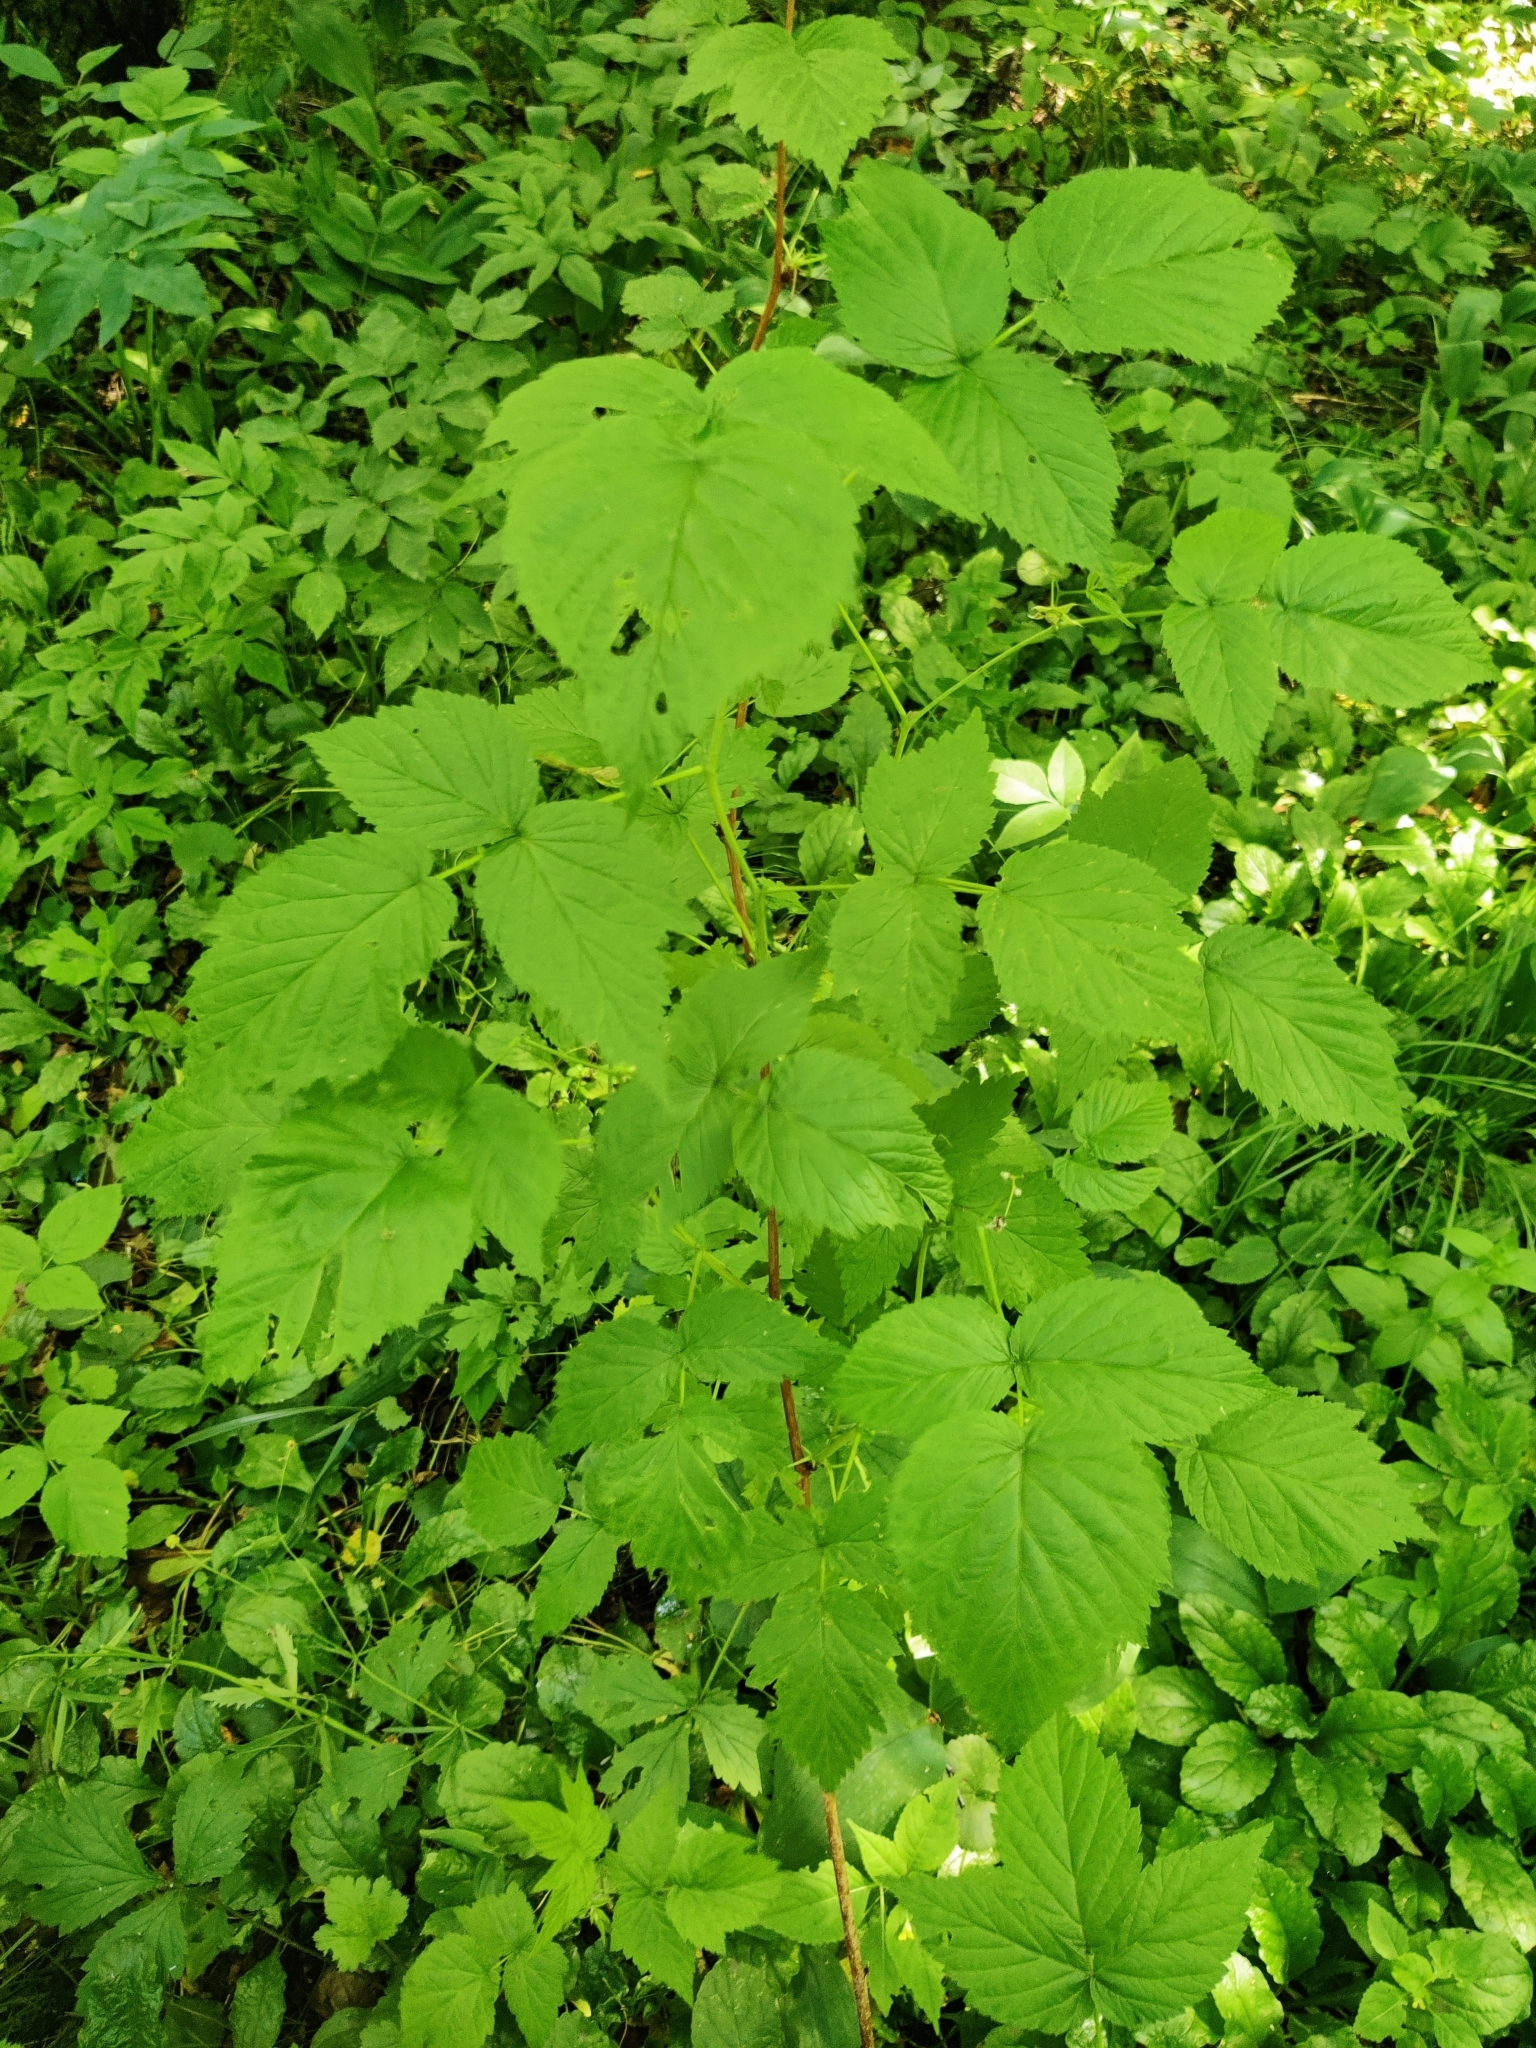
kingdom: Plantae
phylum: Tracheophyta
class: Magnoliopsida
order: Rosales
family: Rosaceae
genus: Rubus
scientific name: Rubus idaeus
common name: Raspberry
